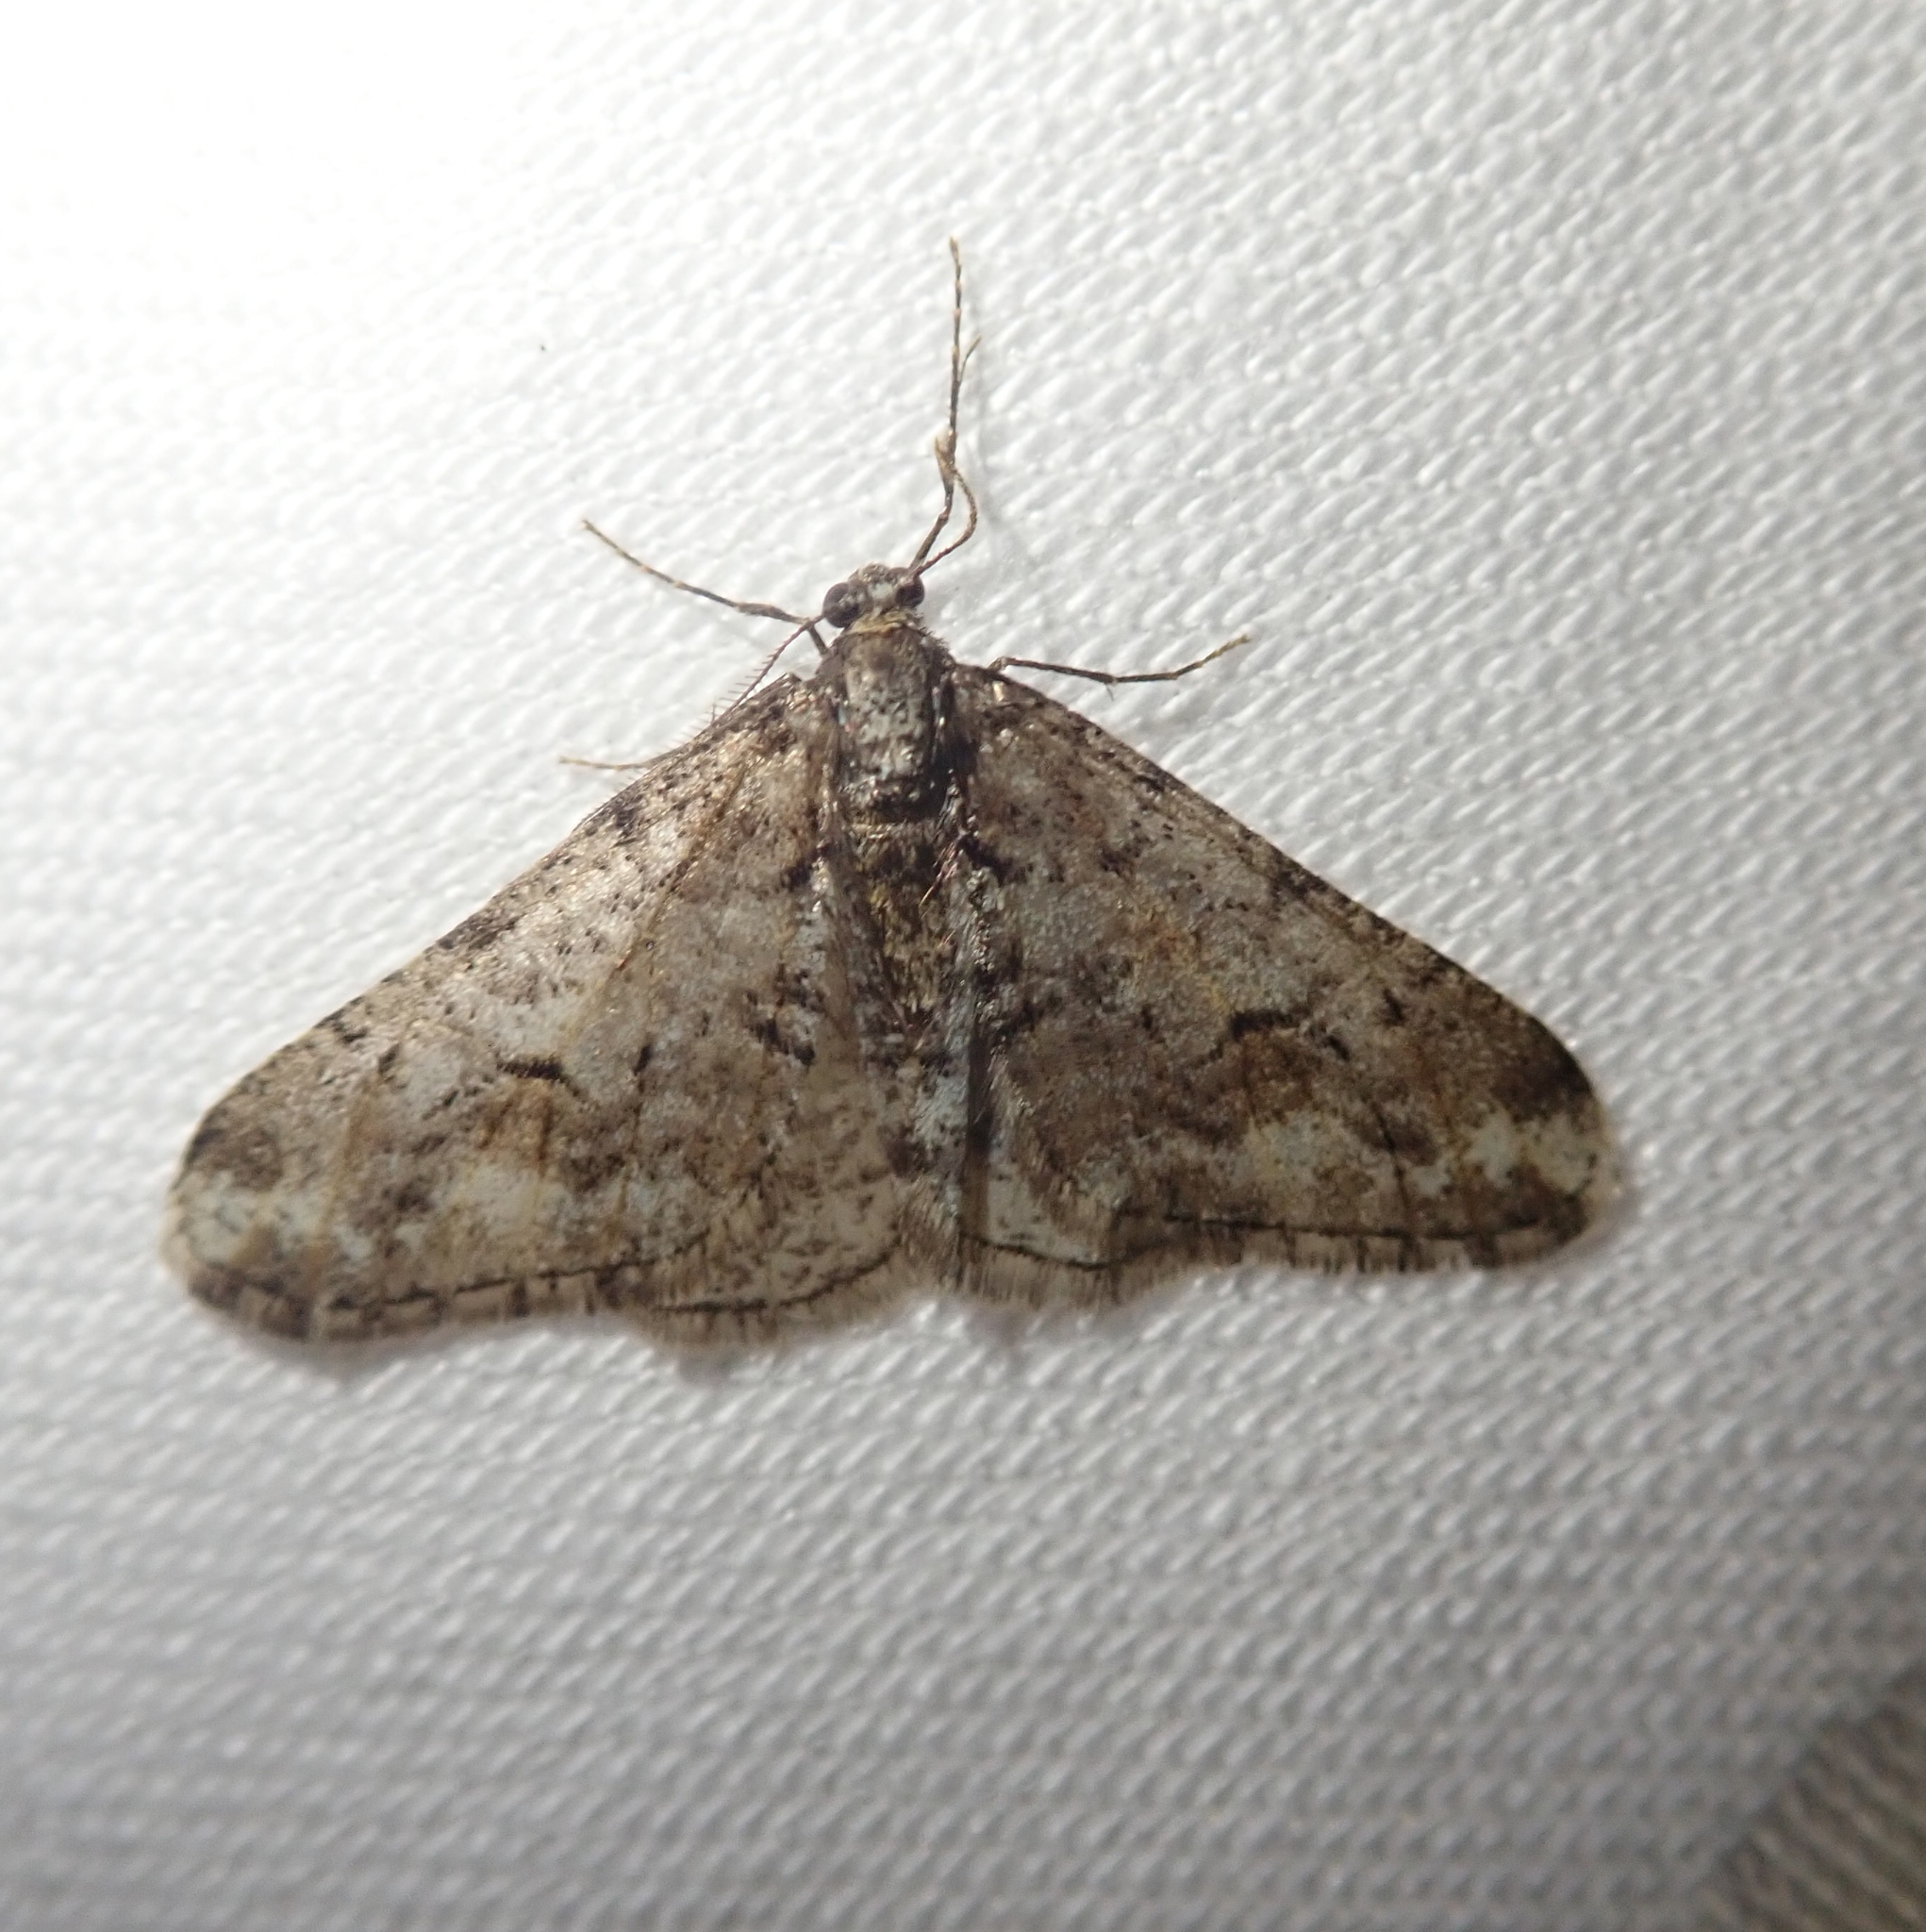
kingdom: Animalia
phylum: Arthropoda
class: Insecta
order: Lepidoptera
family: Geometridae
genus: Agriopis
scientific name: Agriopis leucophaearia
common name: Spring usher
